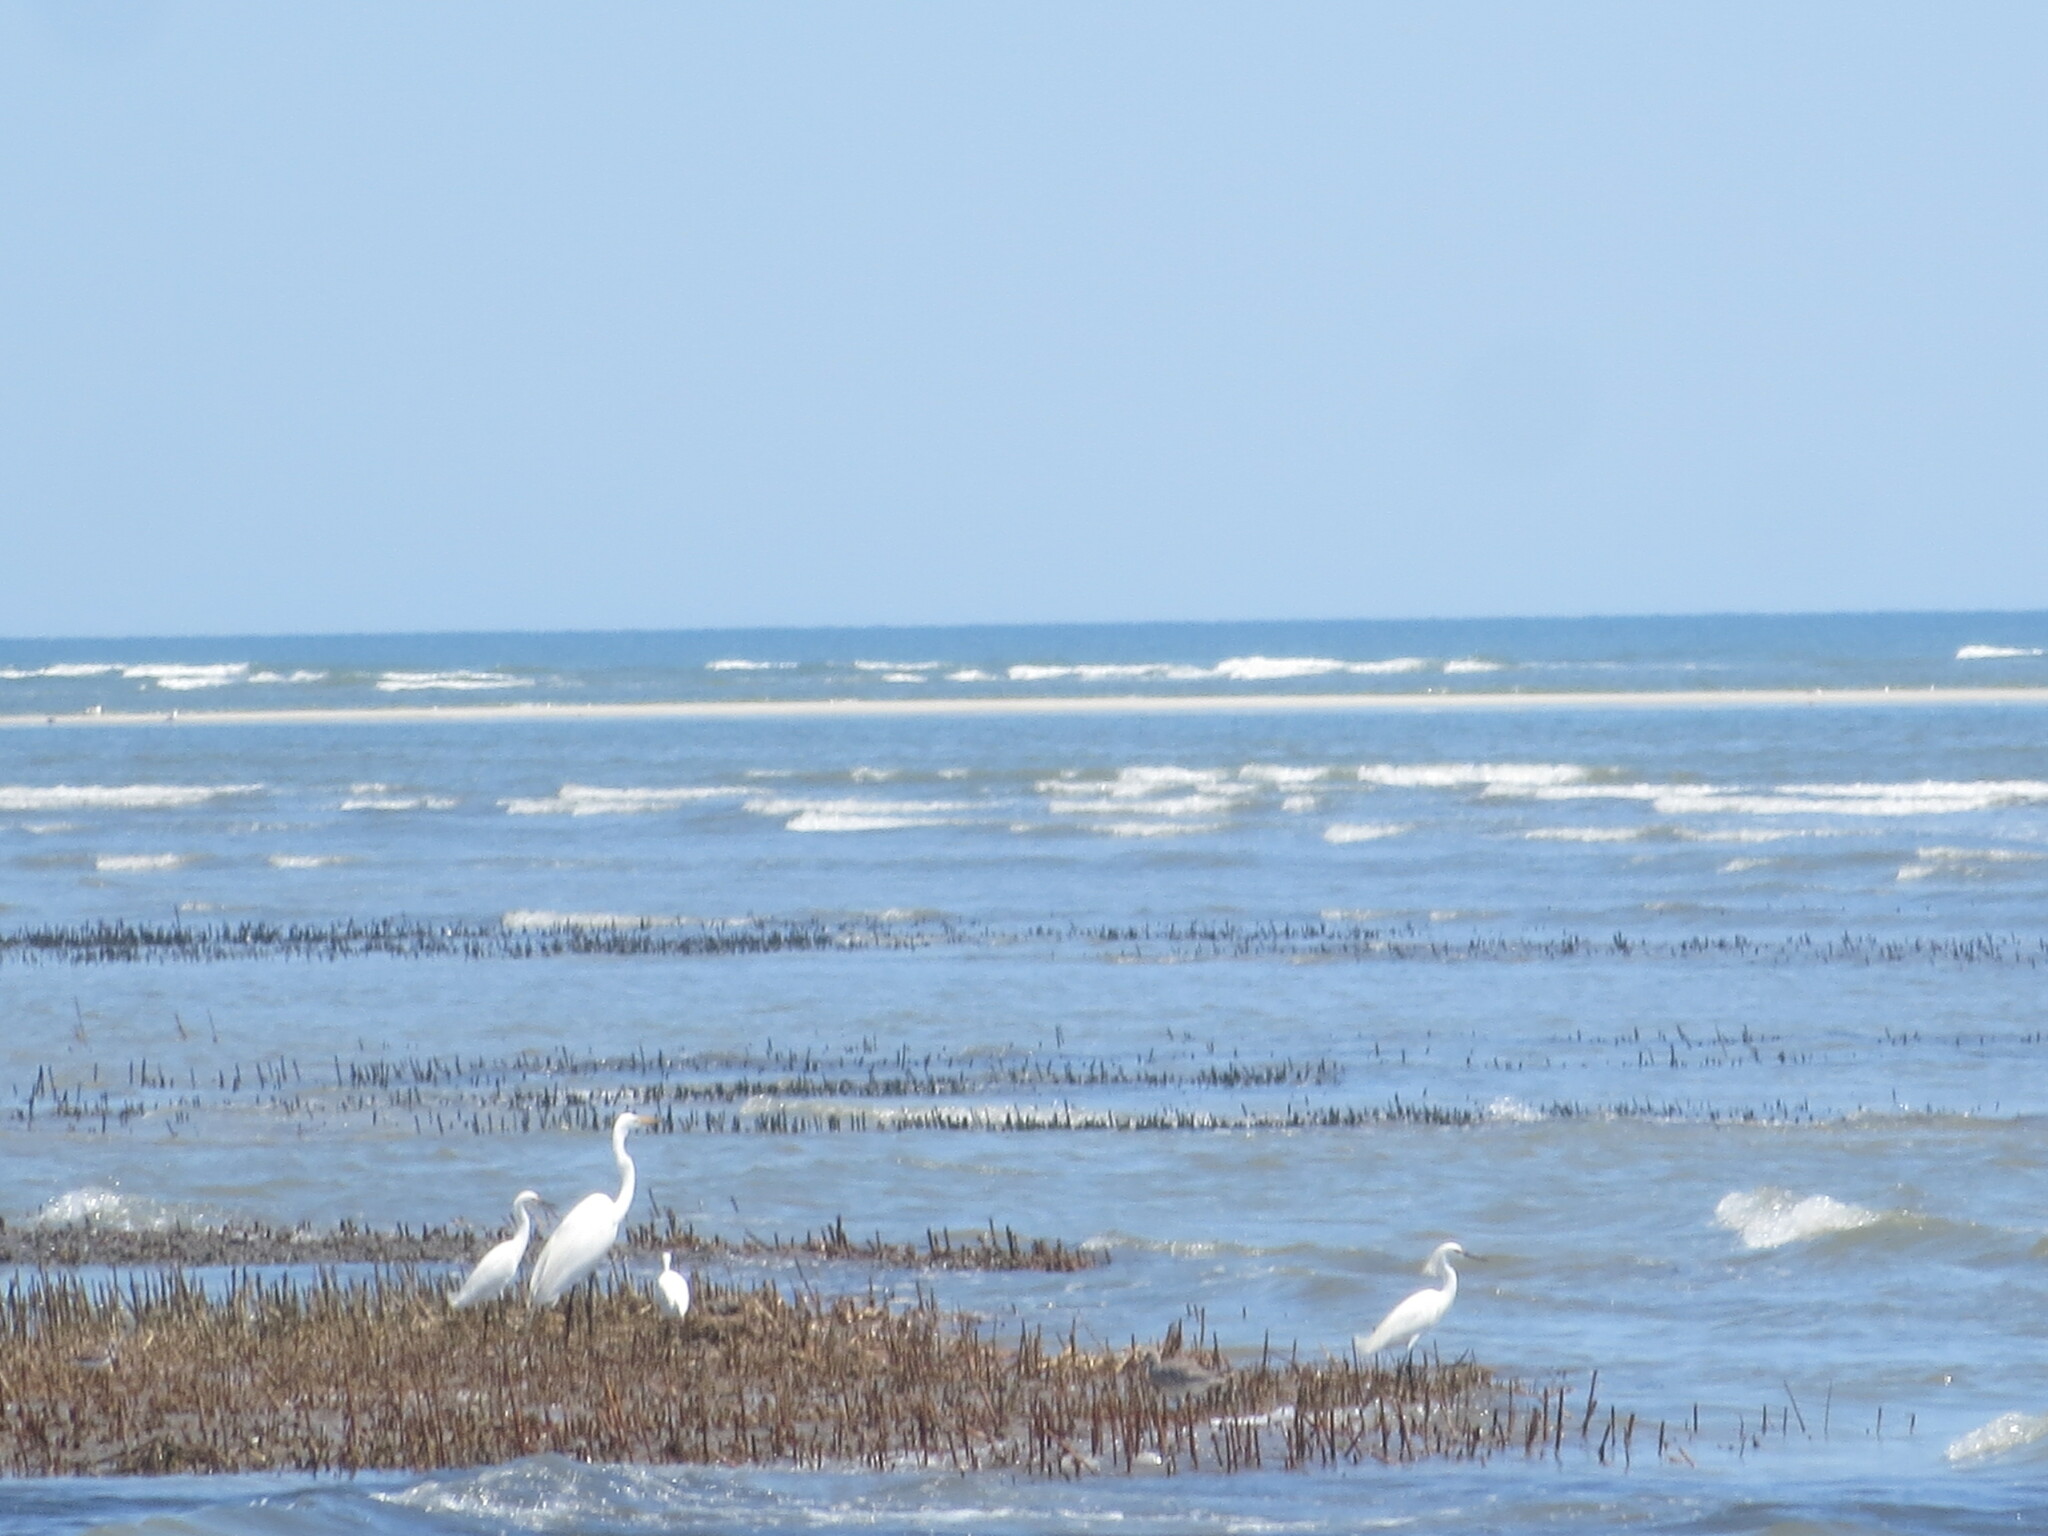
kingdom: Animalia
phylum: Chordata
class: Aves
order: Pelecaniformes
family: Ardeidae
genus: Ardea
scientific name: Ardea alba
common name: Great egret
